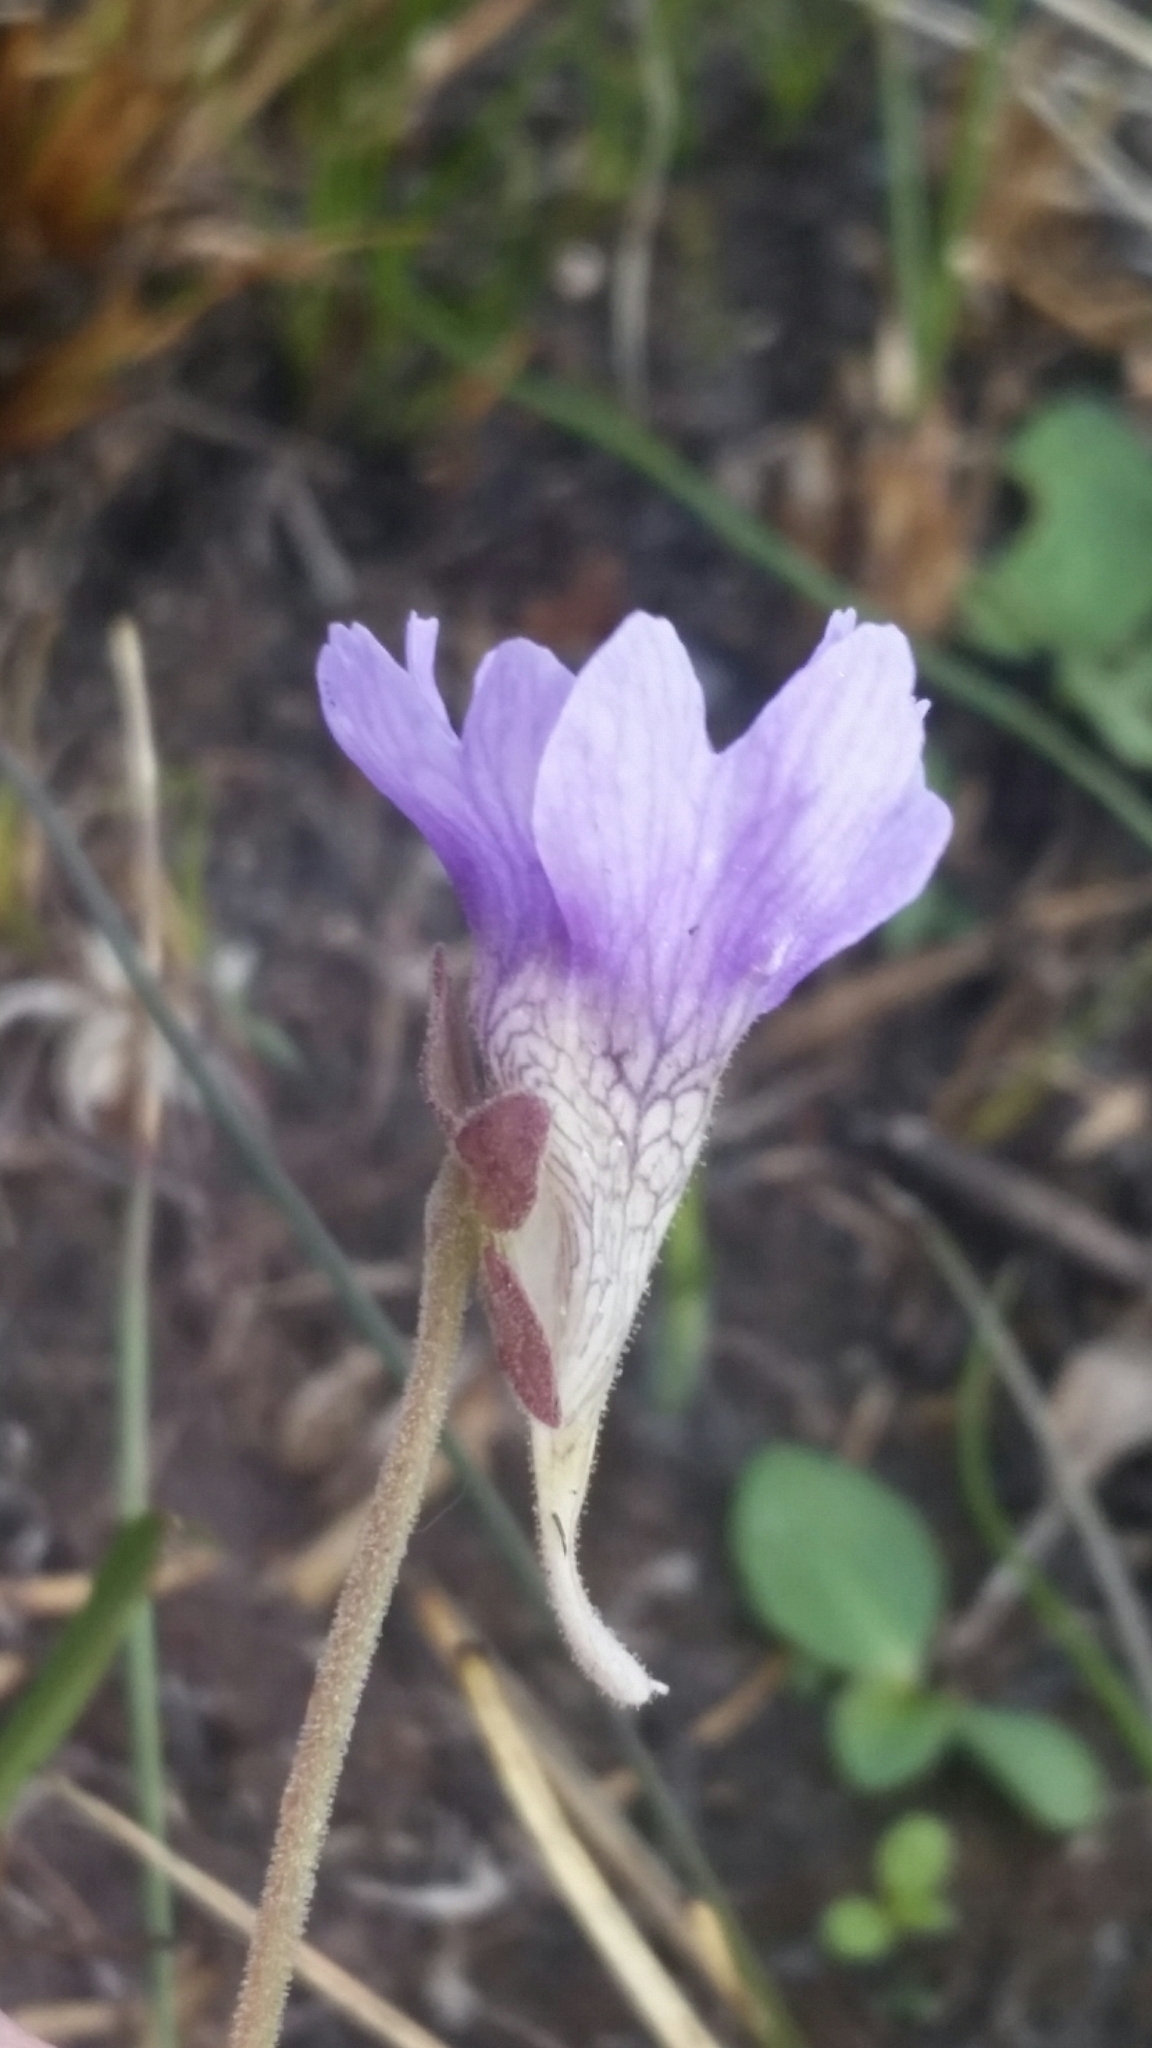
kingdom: Plantae
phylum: Tracheophyta
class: Magnoliopsida
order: Lamiales
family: Lentibulariaceae
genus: Pinguicula
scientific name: Pinguicula caerulea
